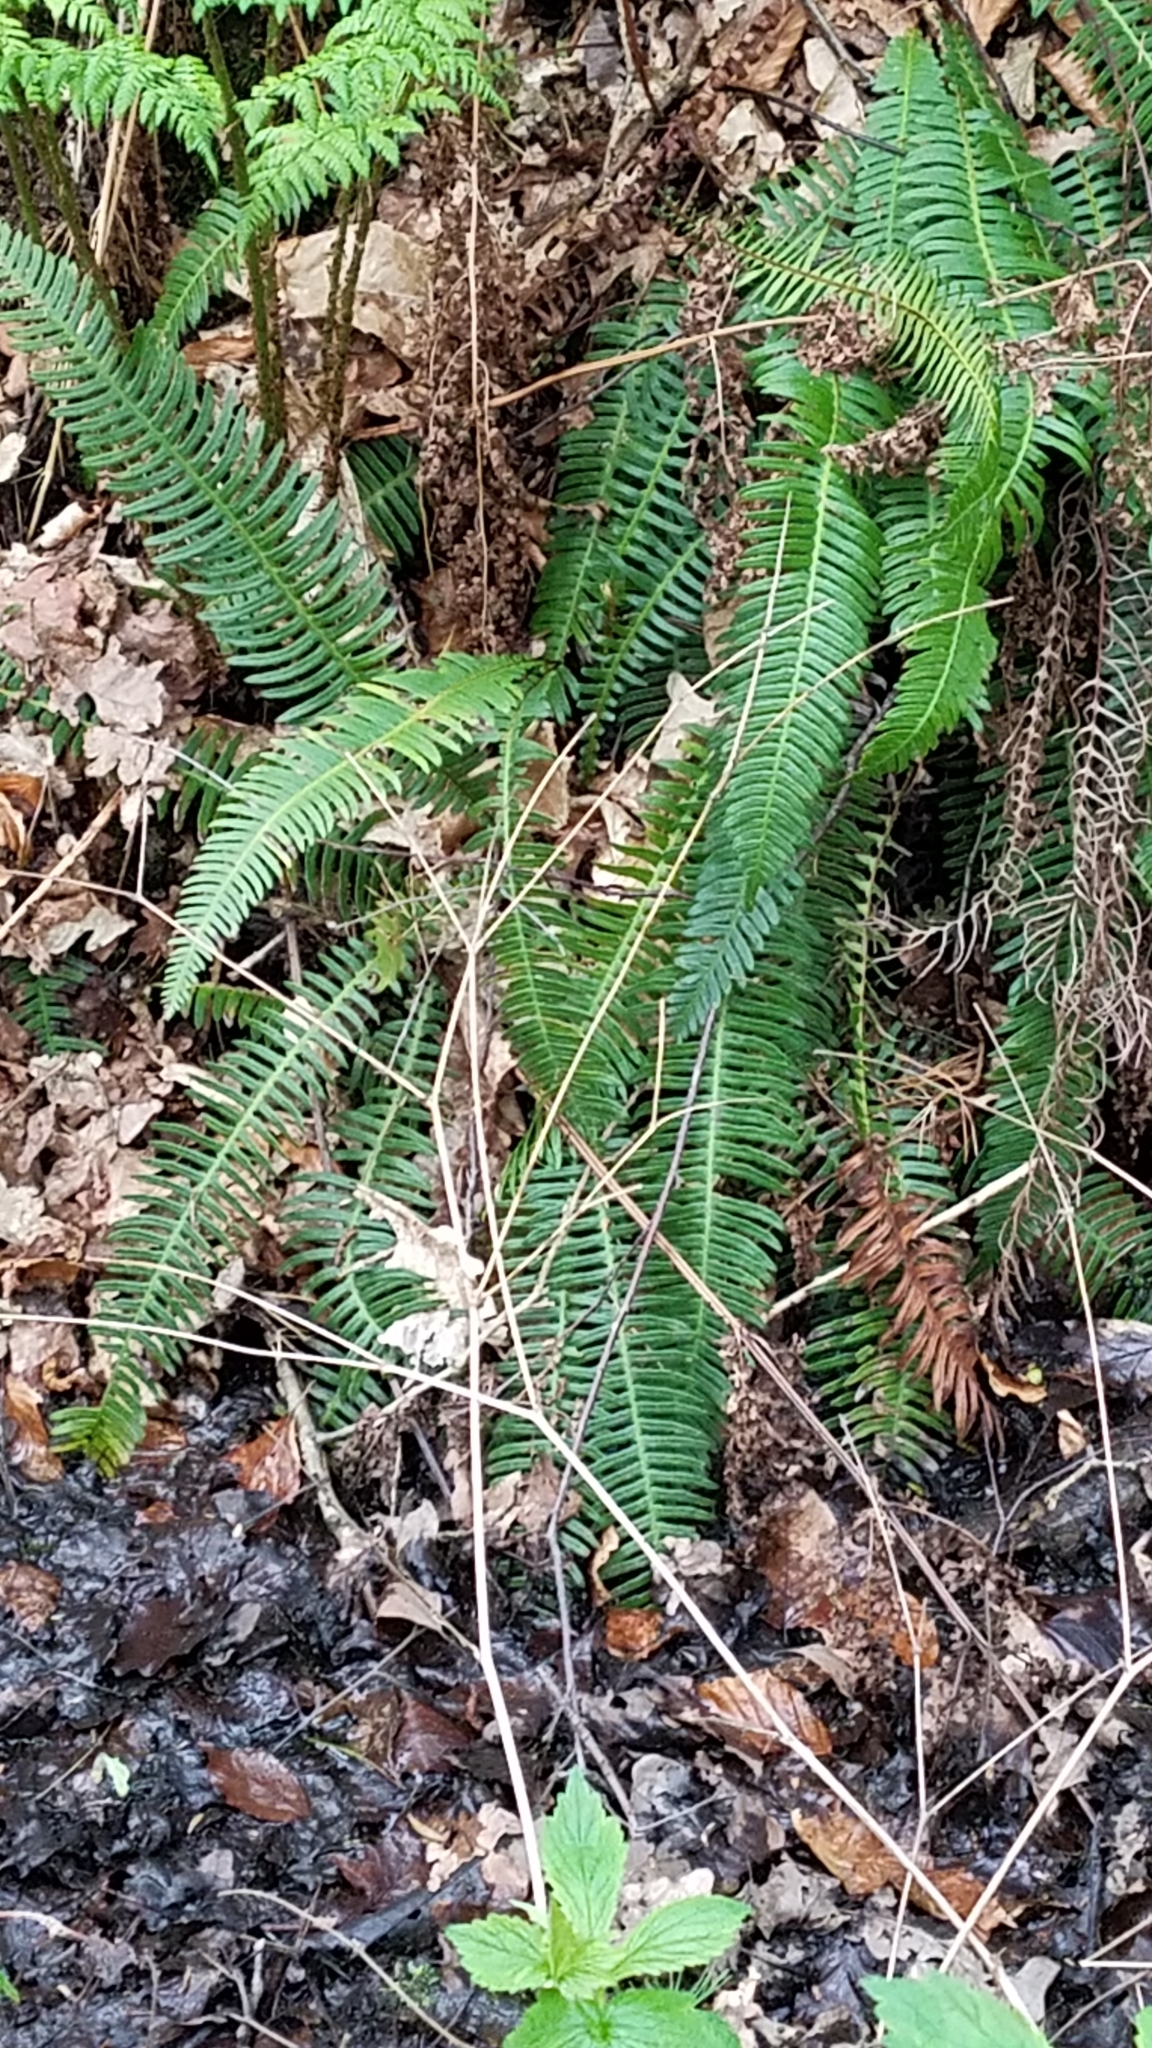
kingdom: Plantae
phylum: Tracheophyta
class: Polypodiopsida
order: Polypodiales
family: Blechnaceae
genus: Struthiopteris
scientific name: Struthiopteris spicant
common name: Deer fern
